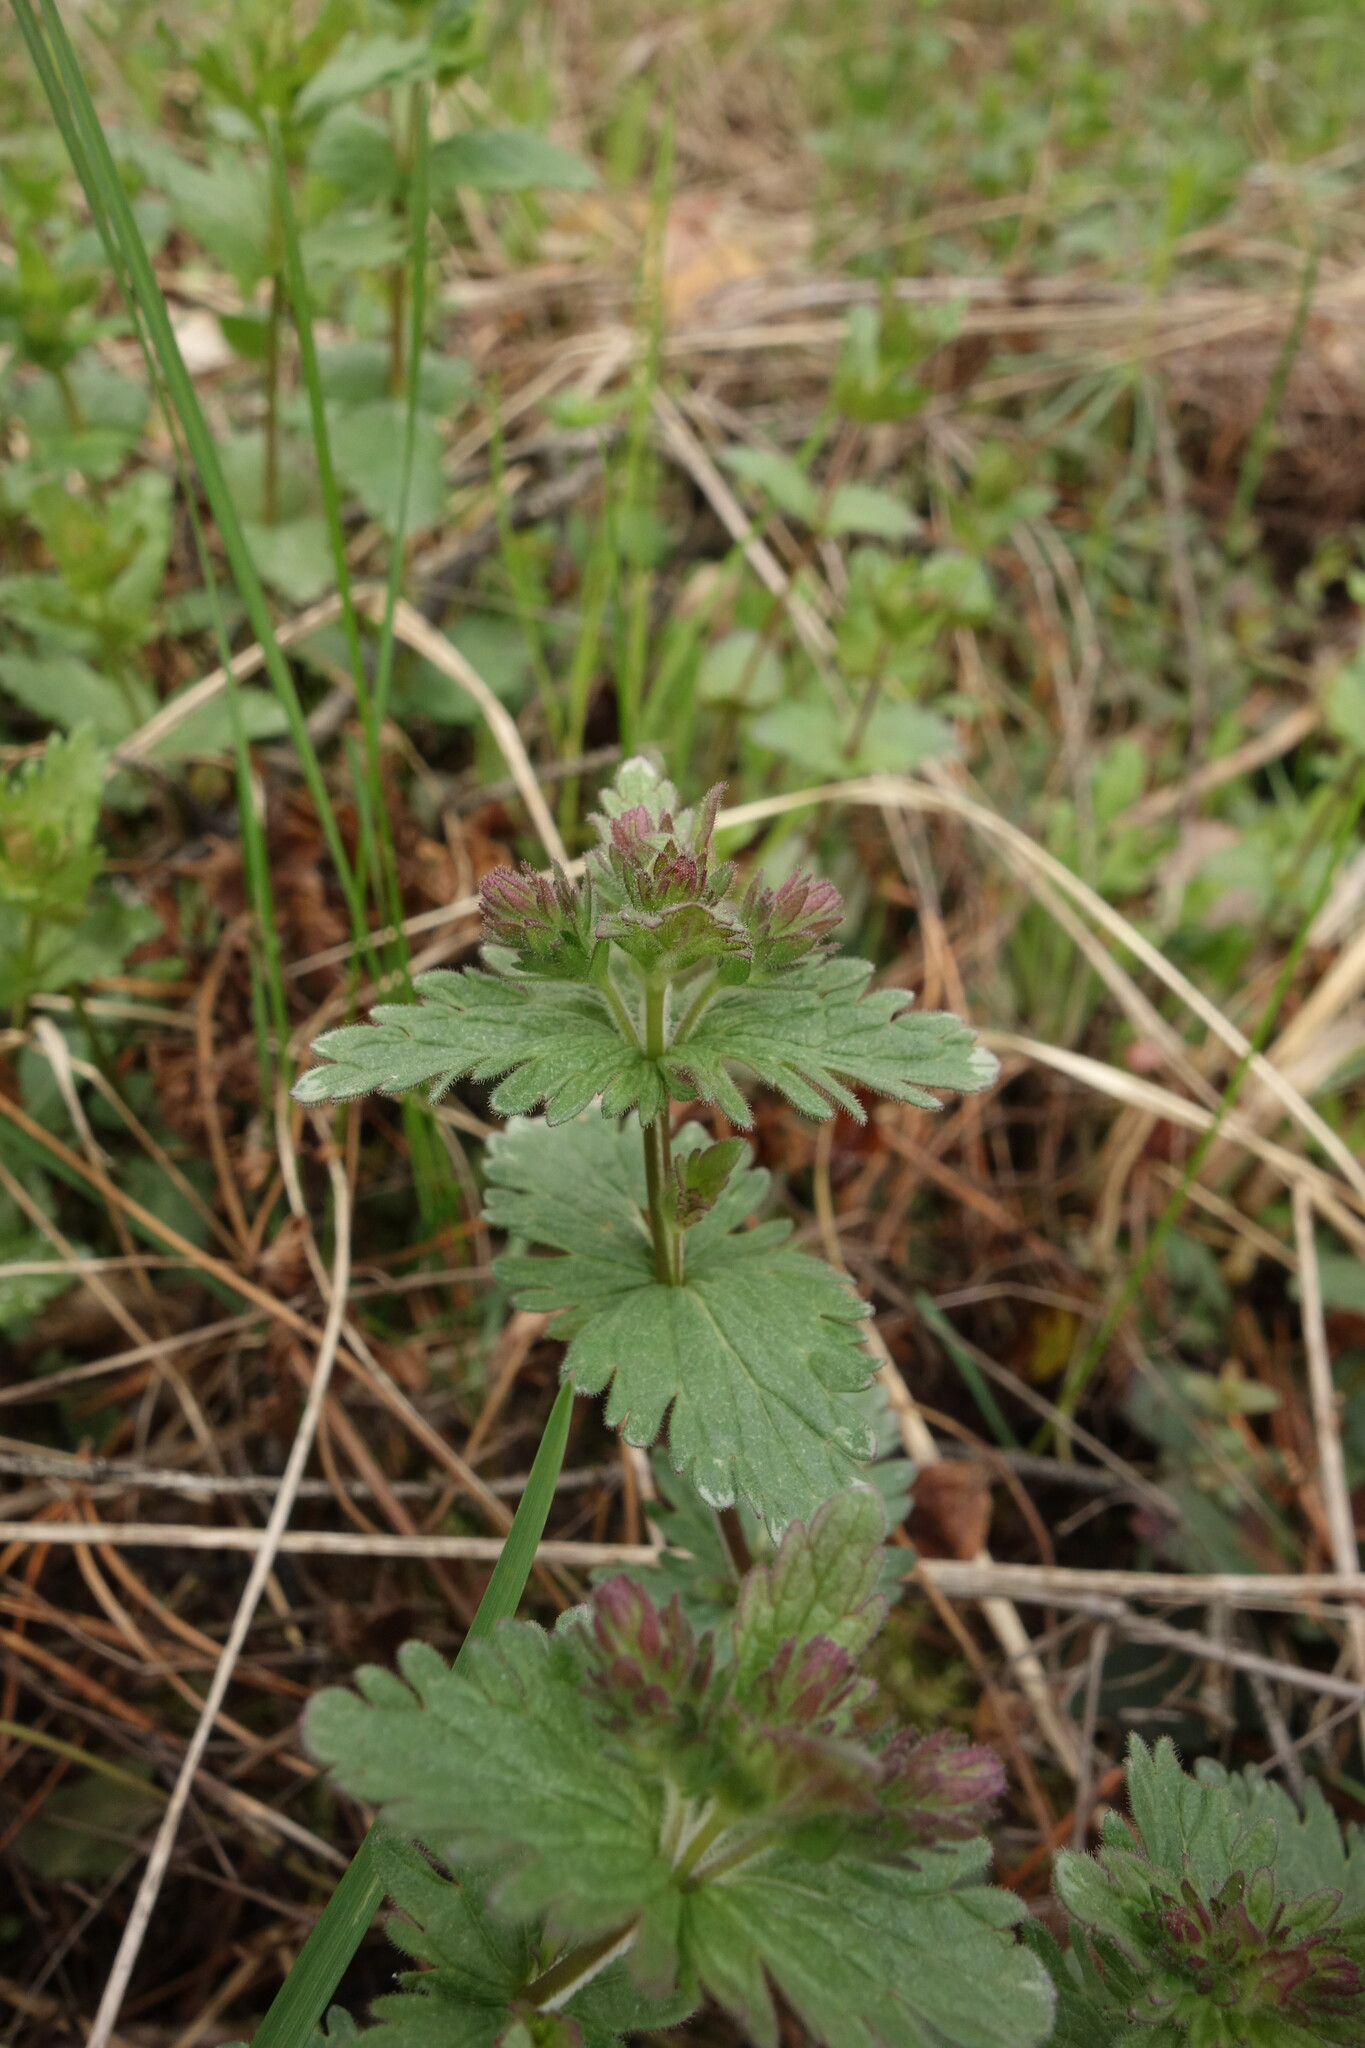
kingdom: Plantae
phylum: Tracheophyta
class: Magnoliopsida
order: Lamiales
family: Plantaginaceae
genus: Veronica
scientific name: Veronica chamaedrys
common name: Germander speedwell
